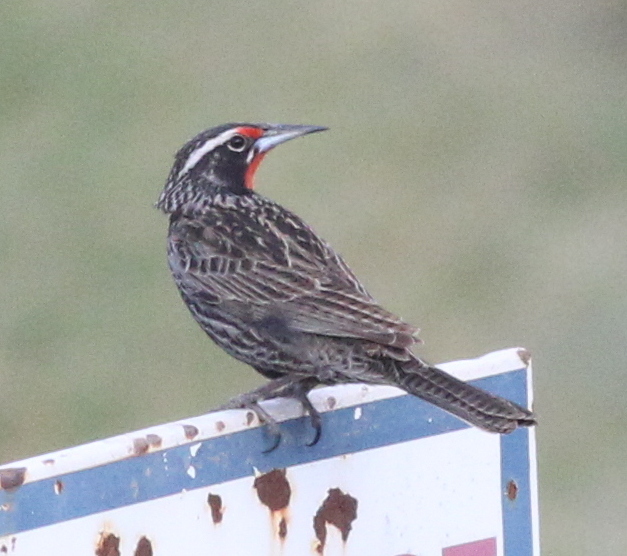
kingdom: Animalia
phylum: Chordata
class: Aves
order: Passeriformes
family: Icteridae
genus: Sturnella
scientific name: Sturnella loyca
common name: Long-tailed meadowlark
